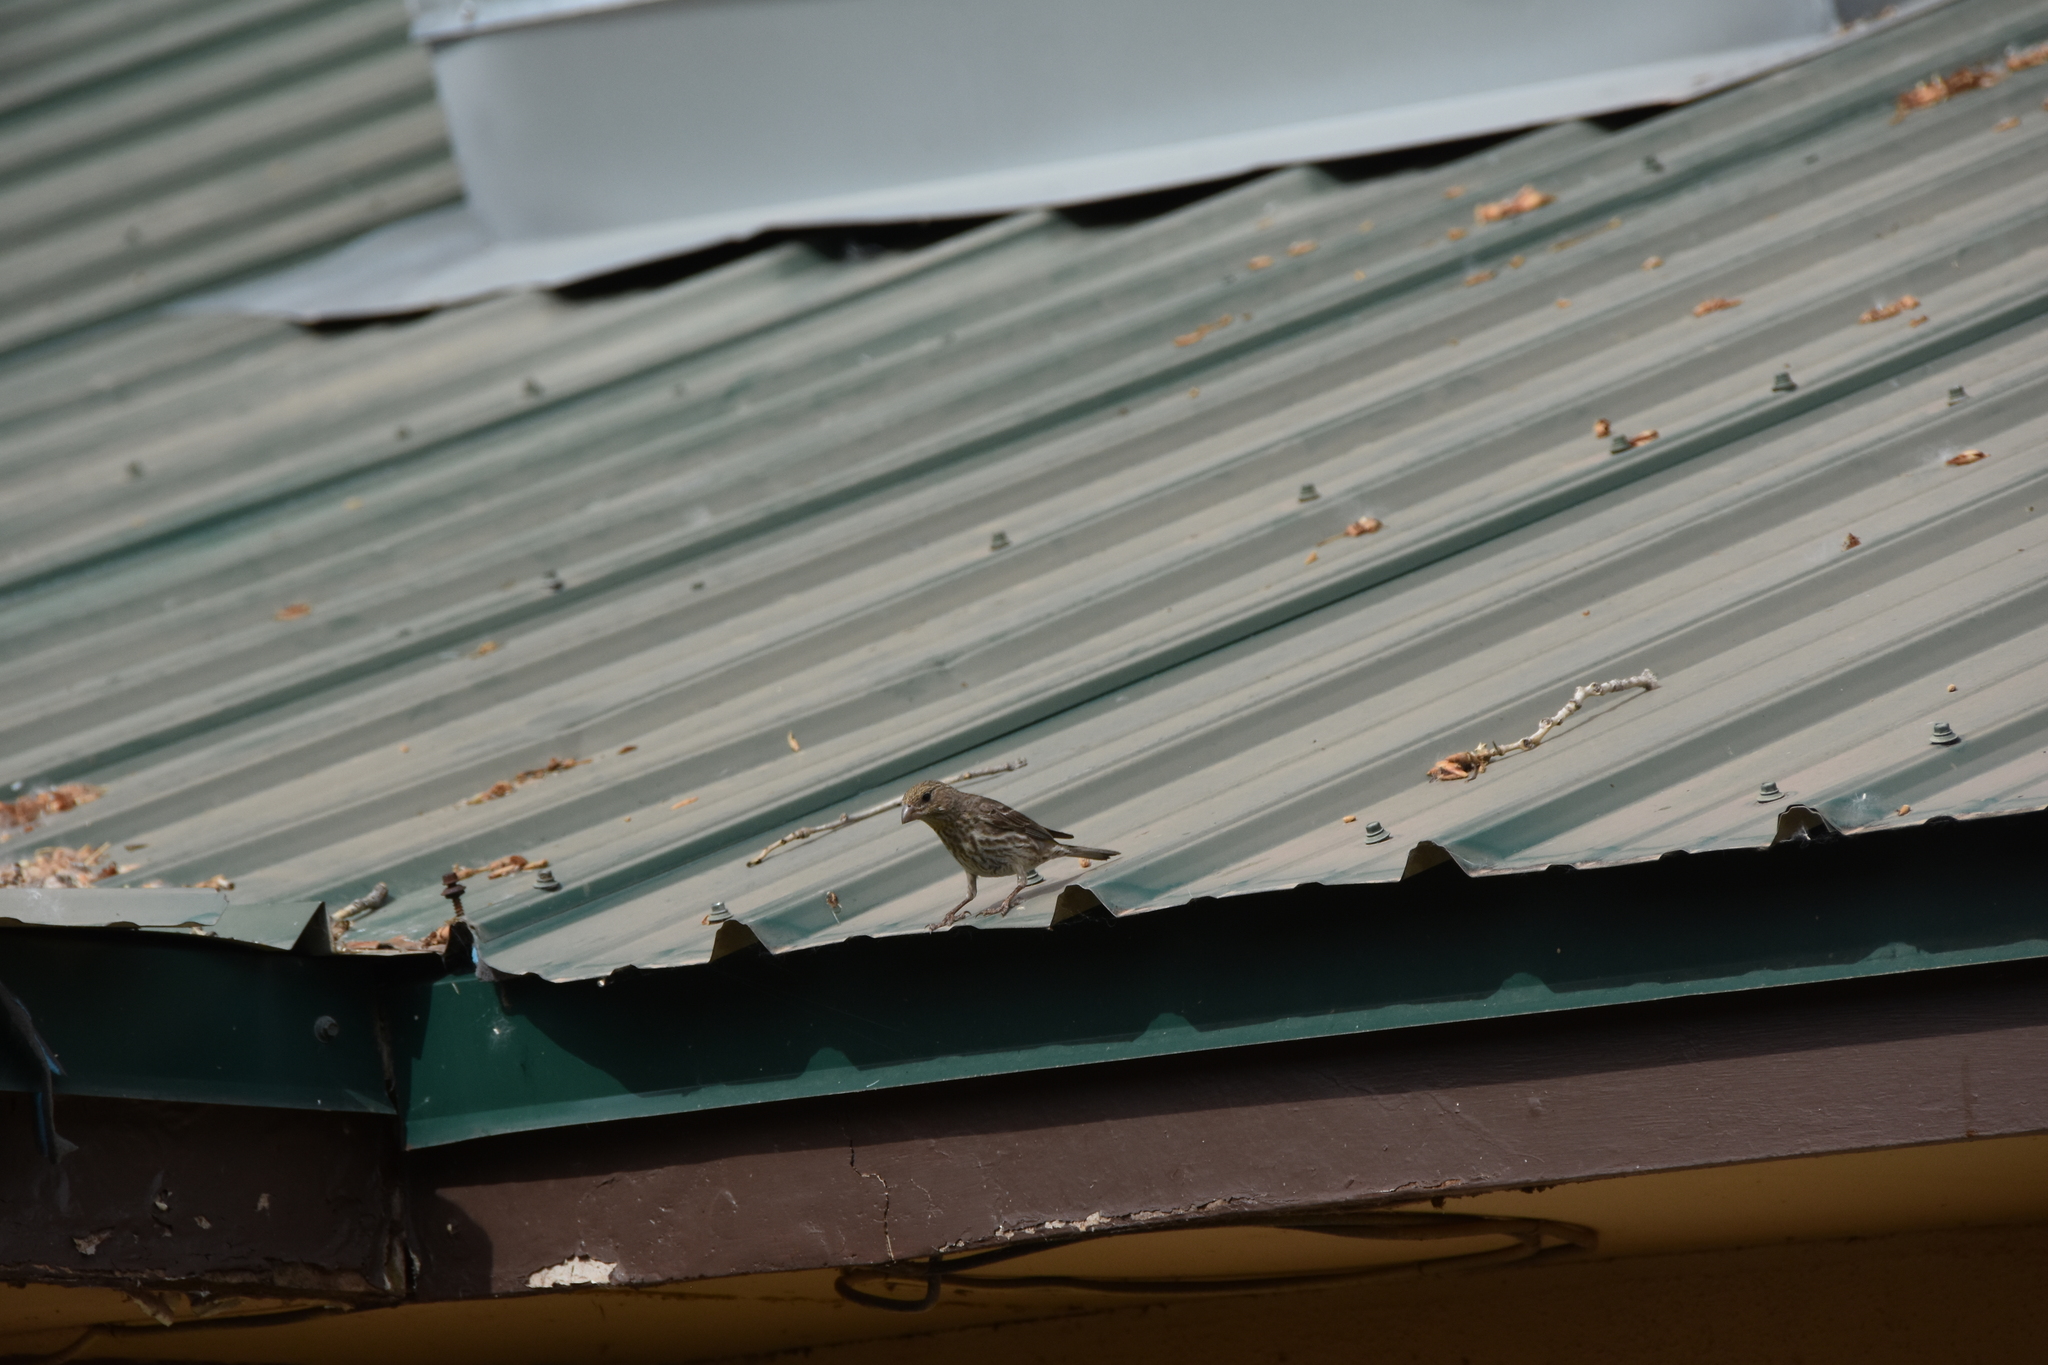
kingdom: Animalia
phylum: Chordata
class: Aves
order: Passeriformes
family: Fringillidae
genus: Haemorhous
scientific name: Haemorhous mexicanus
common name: House finch
